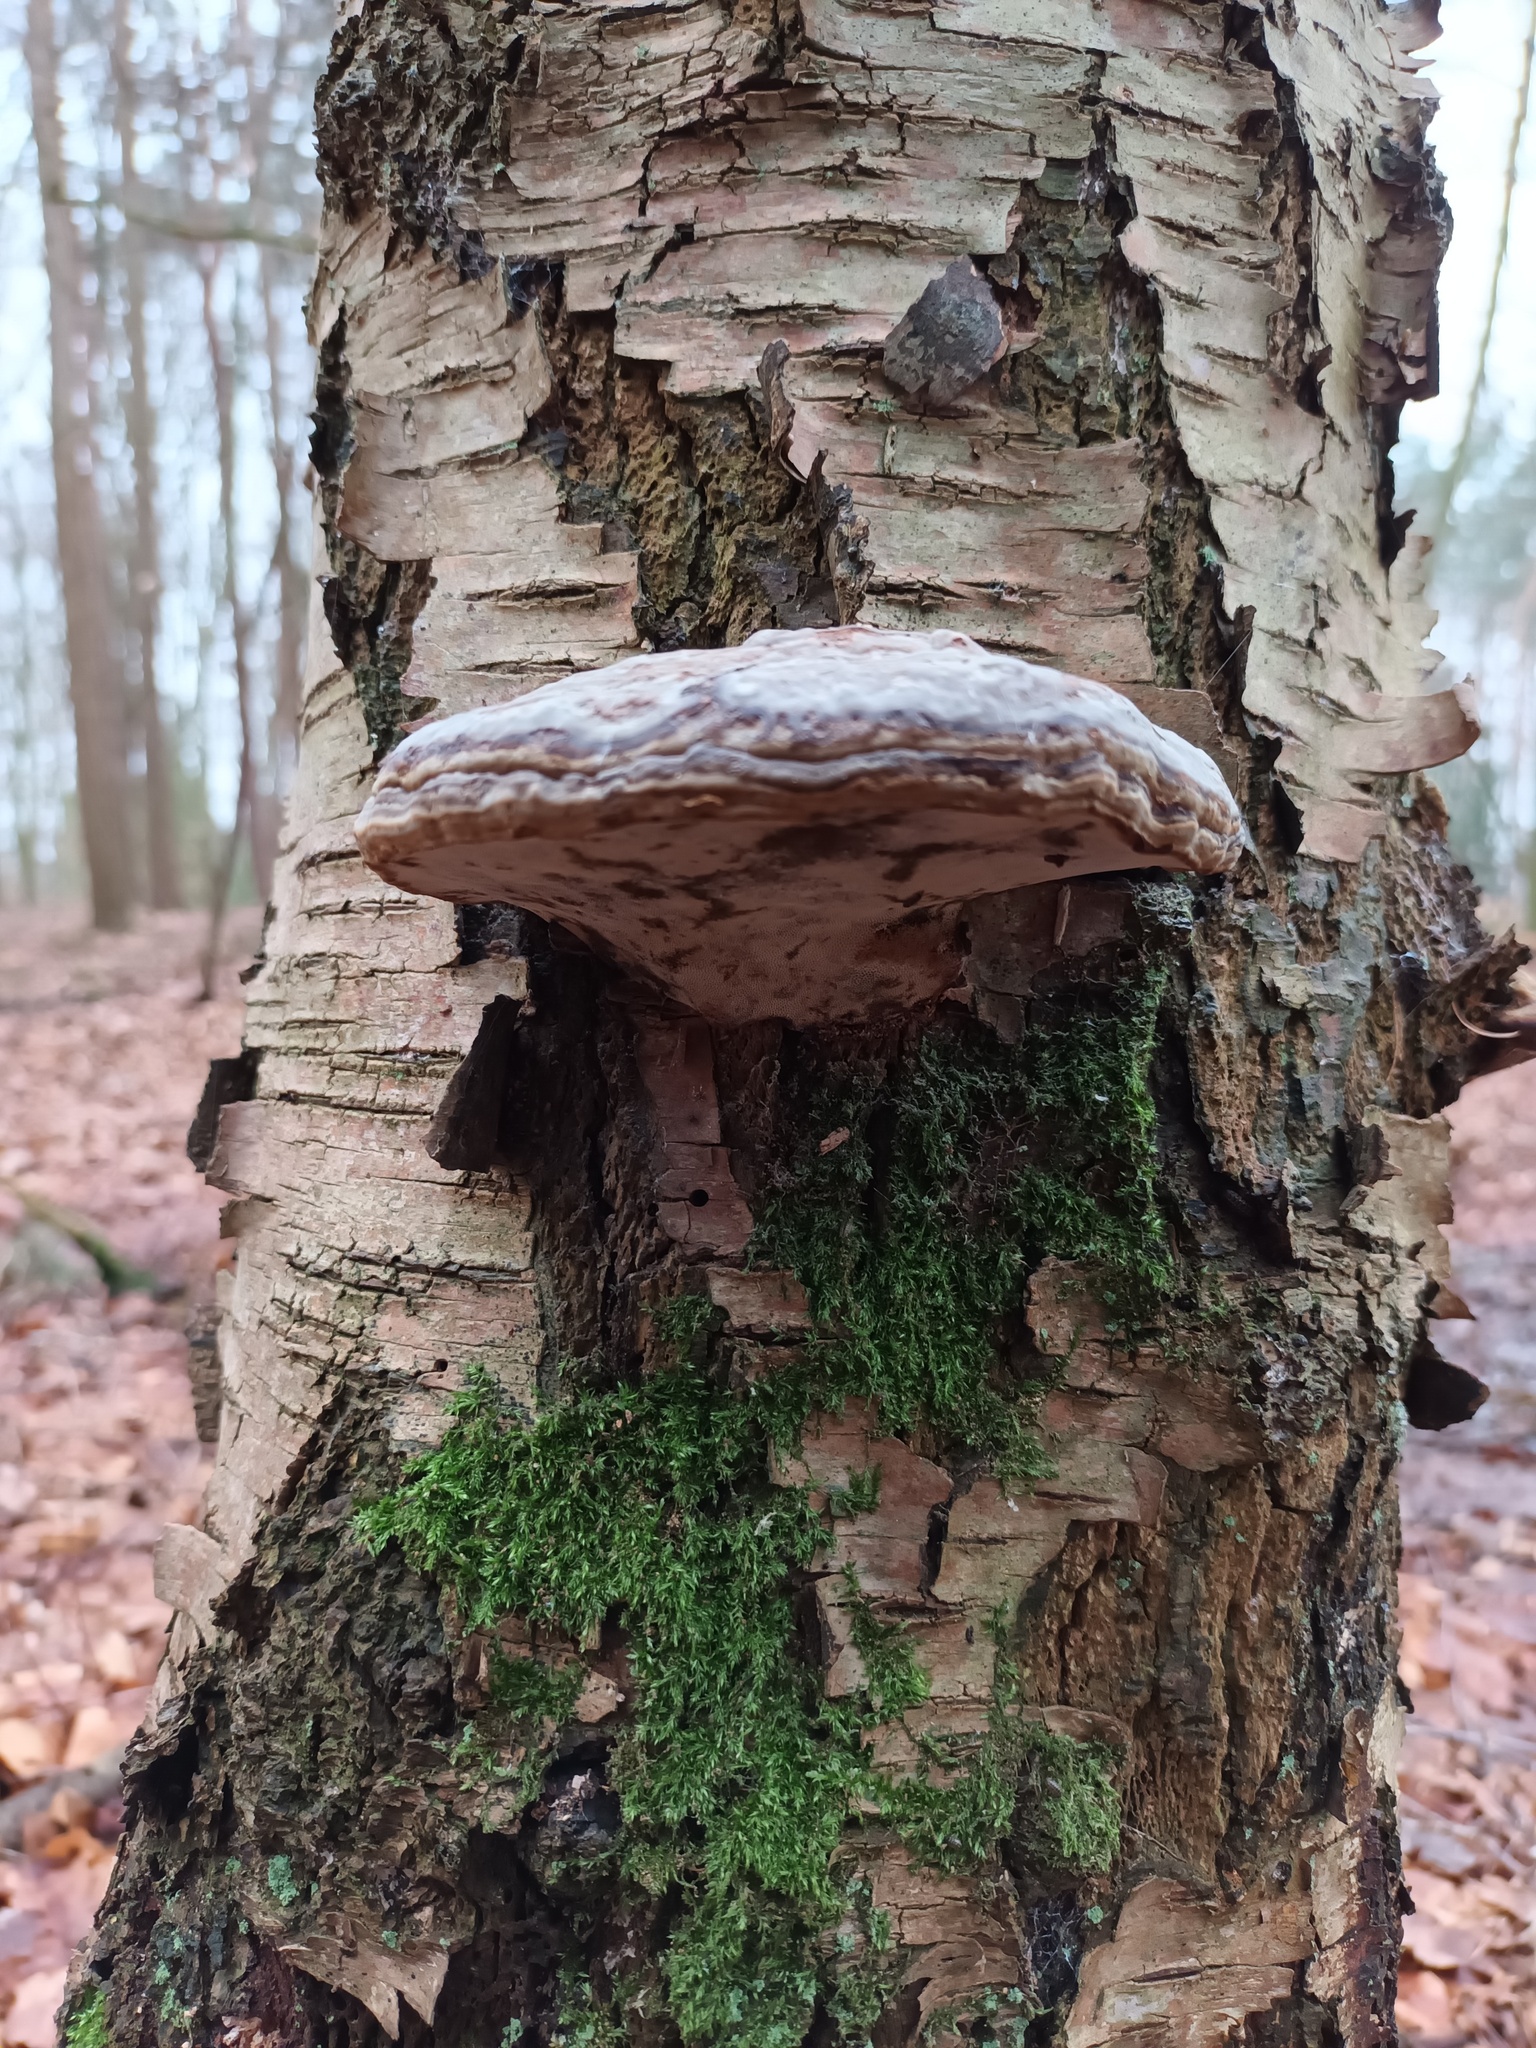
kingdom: Fungi
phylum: Basidiomycota
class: Agaricomycetes
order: Polyporales
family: Polyporaceae
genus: Fomes
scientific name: Fomes fomentarius
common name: Hoof fungus
